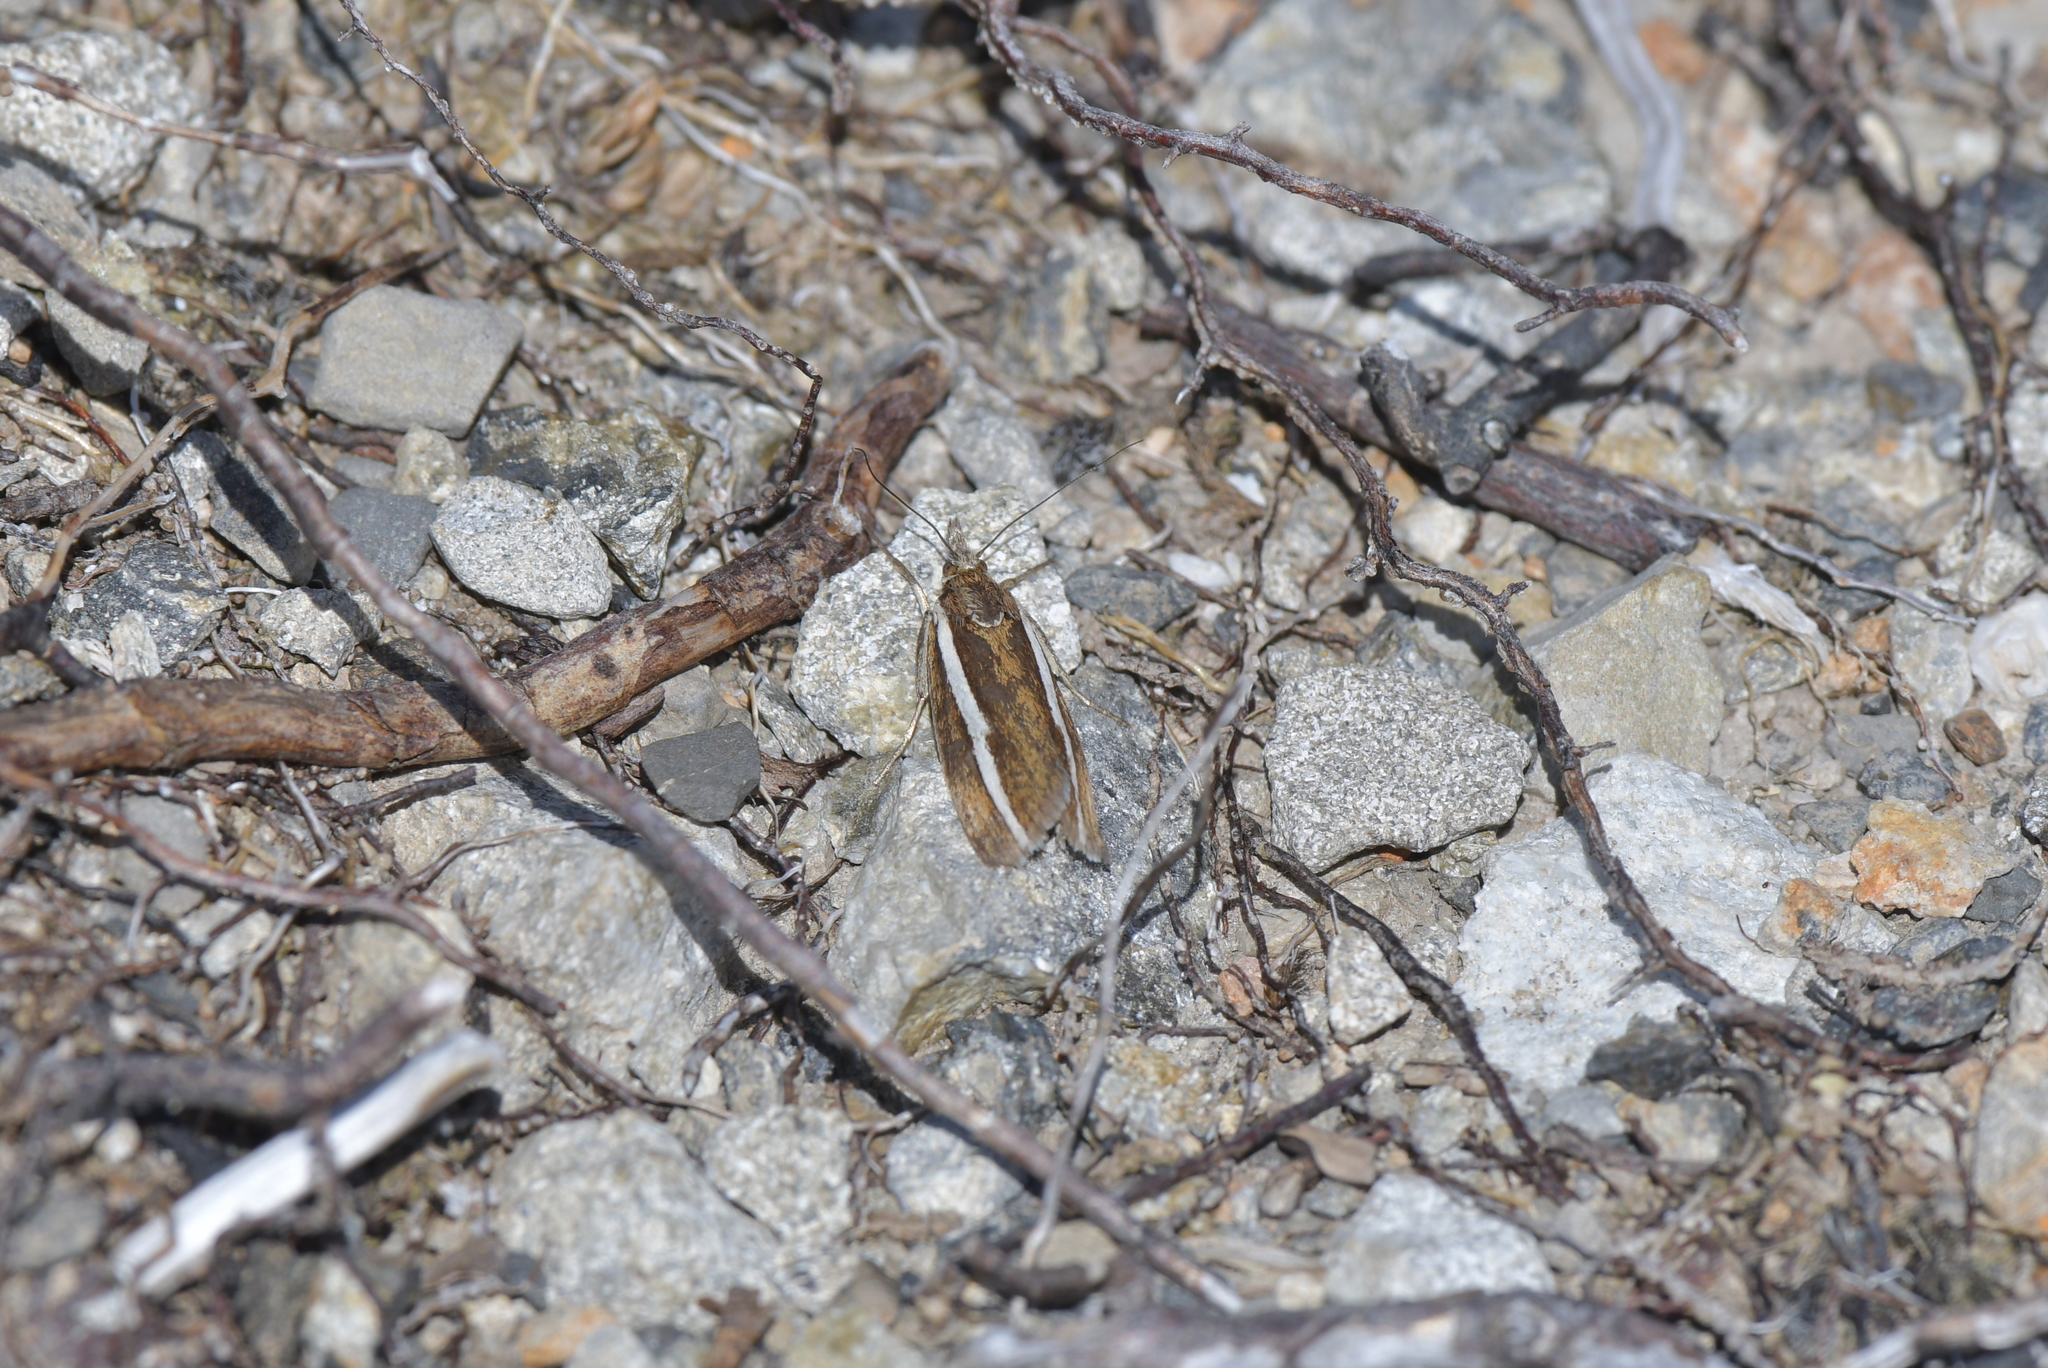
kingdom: Animalia
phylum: Arthropoda
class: Insecta
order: Lepidoptera
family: Crambidae
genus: Orocrambus
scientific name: Orocrambus catacaustus
